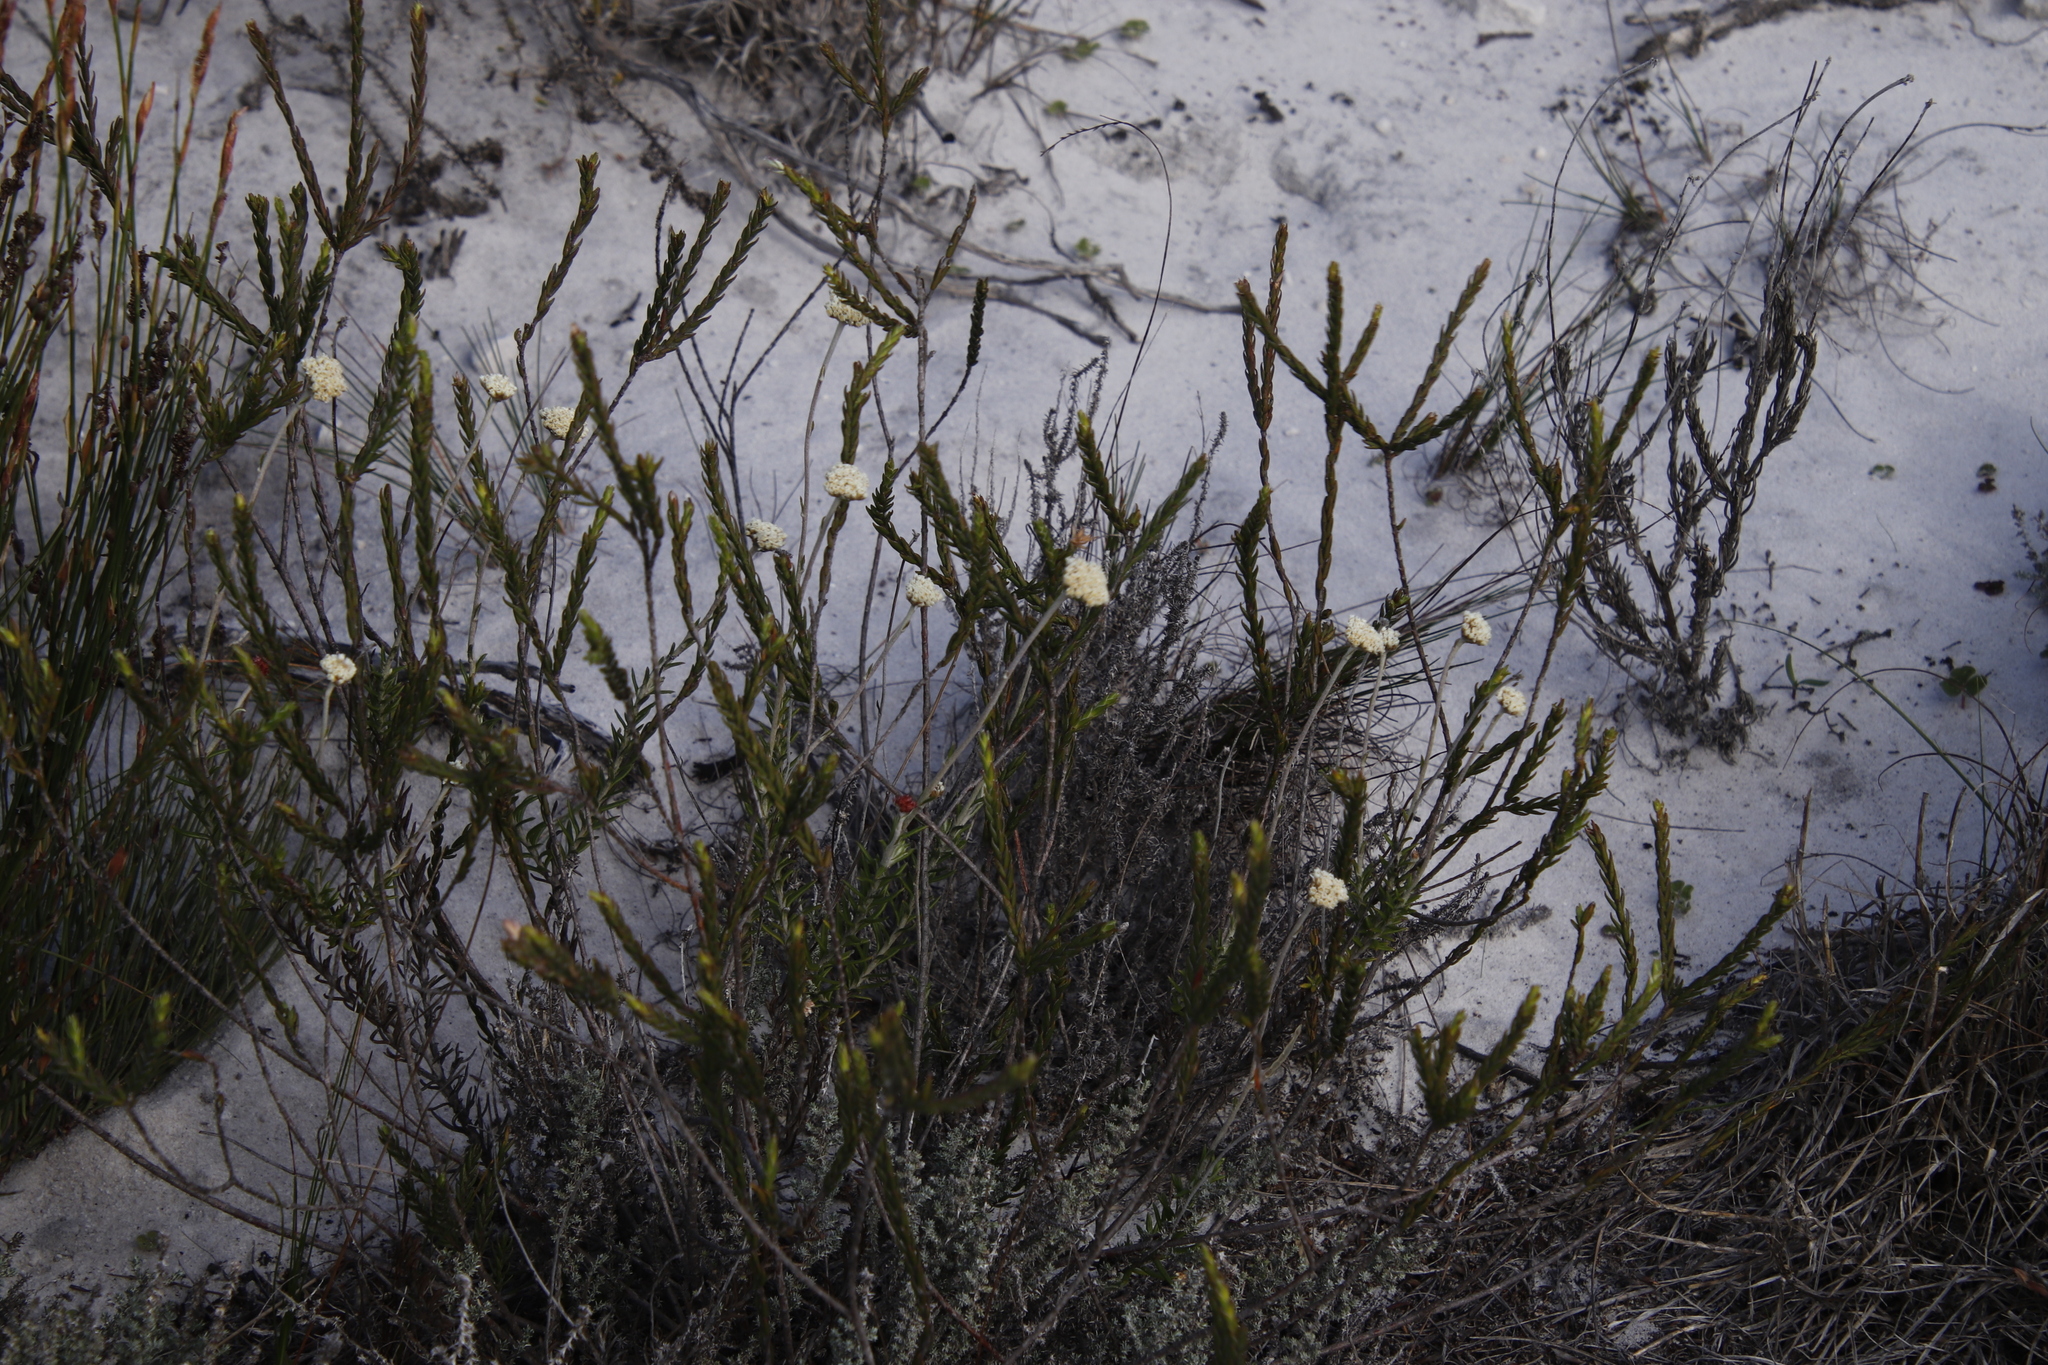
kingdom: Plantae
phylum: Tracheophyta
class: Magnoliopsida
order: Asterales
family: Asteraceae
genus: Anaxeton
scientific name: Anaxeton laeve
